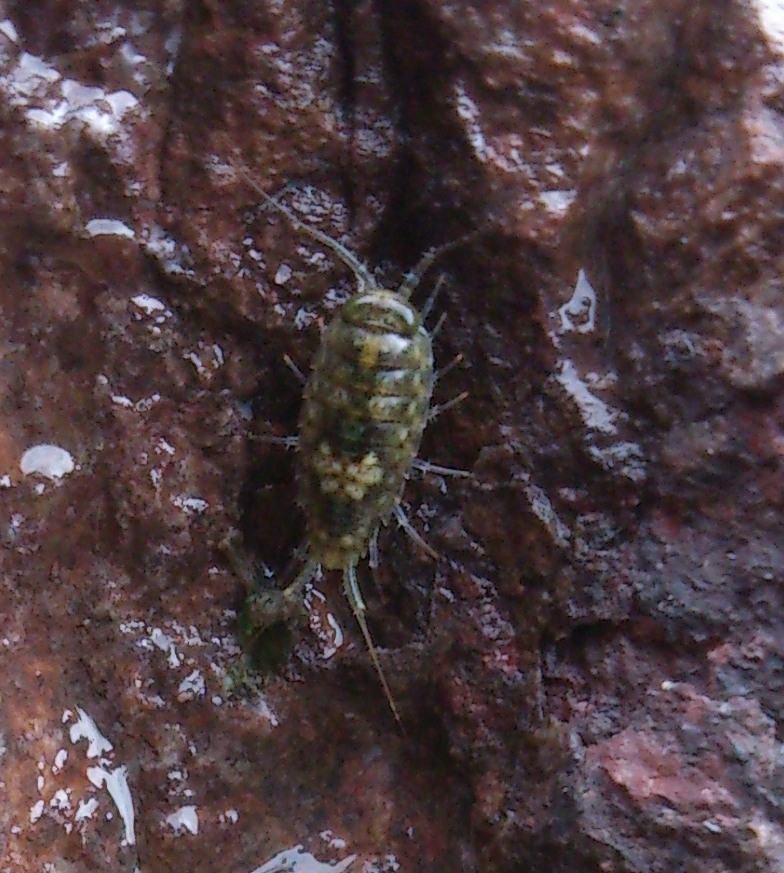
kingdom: Animalia
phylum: Arthropoda
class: Malacostraca
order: Isopoda
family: Ligiidae
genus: Ligia
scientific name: Ligia italica
